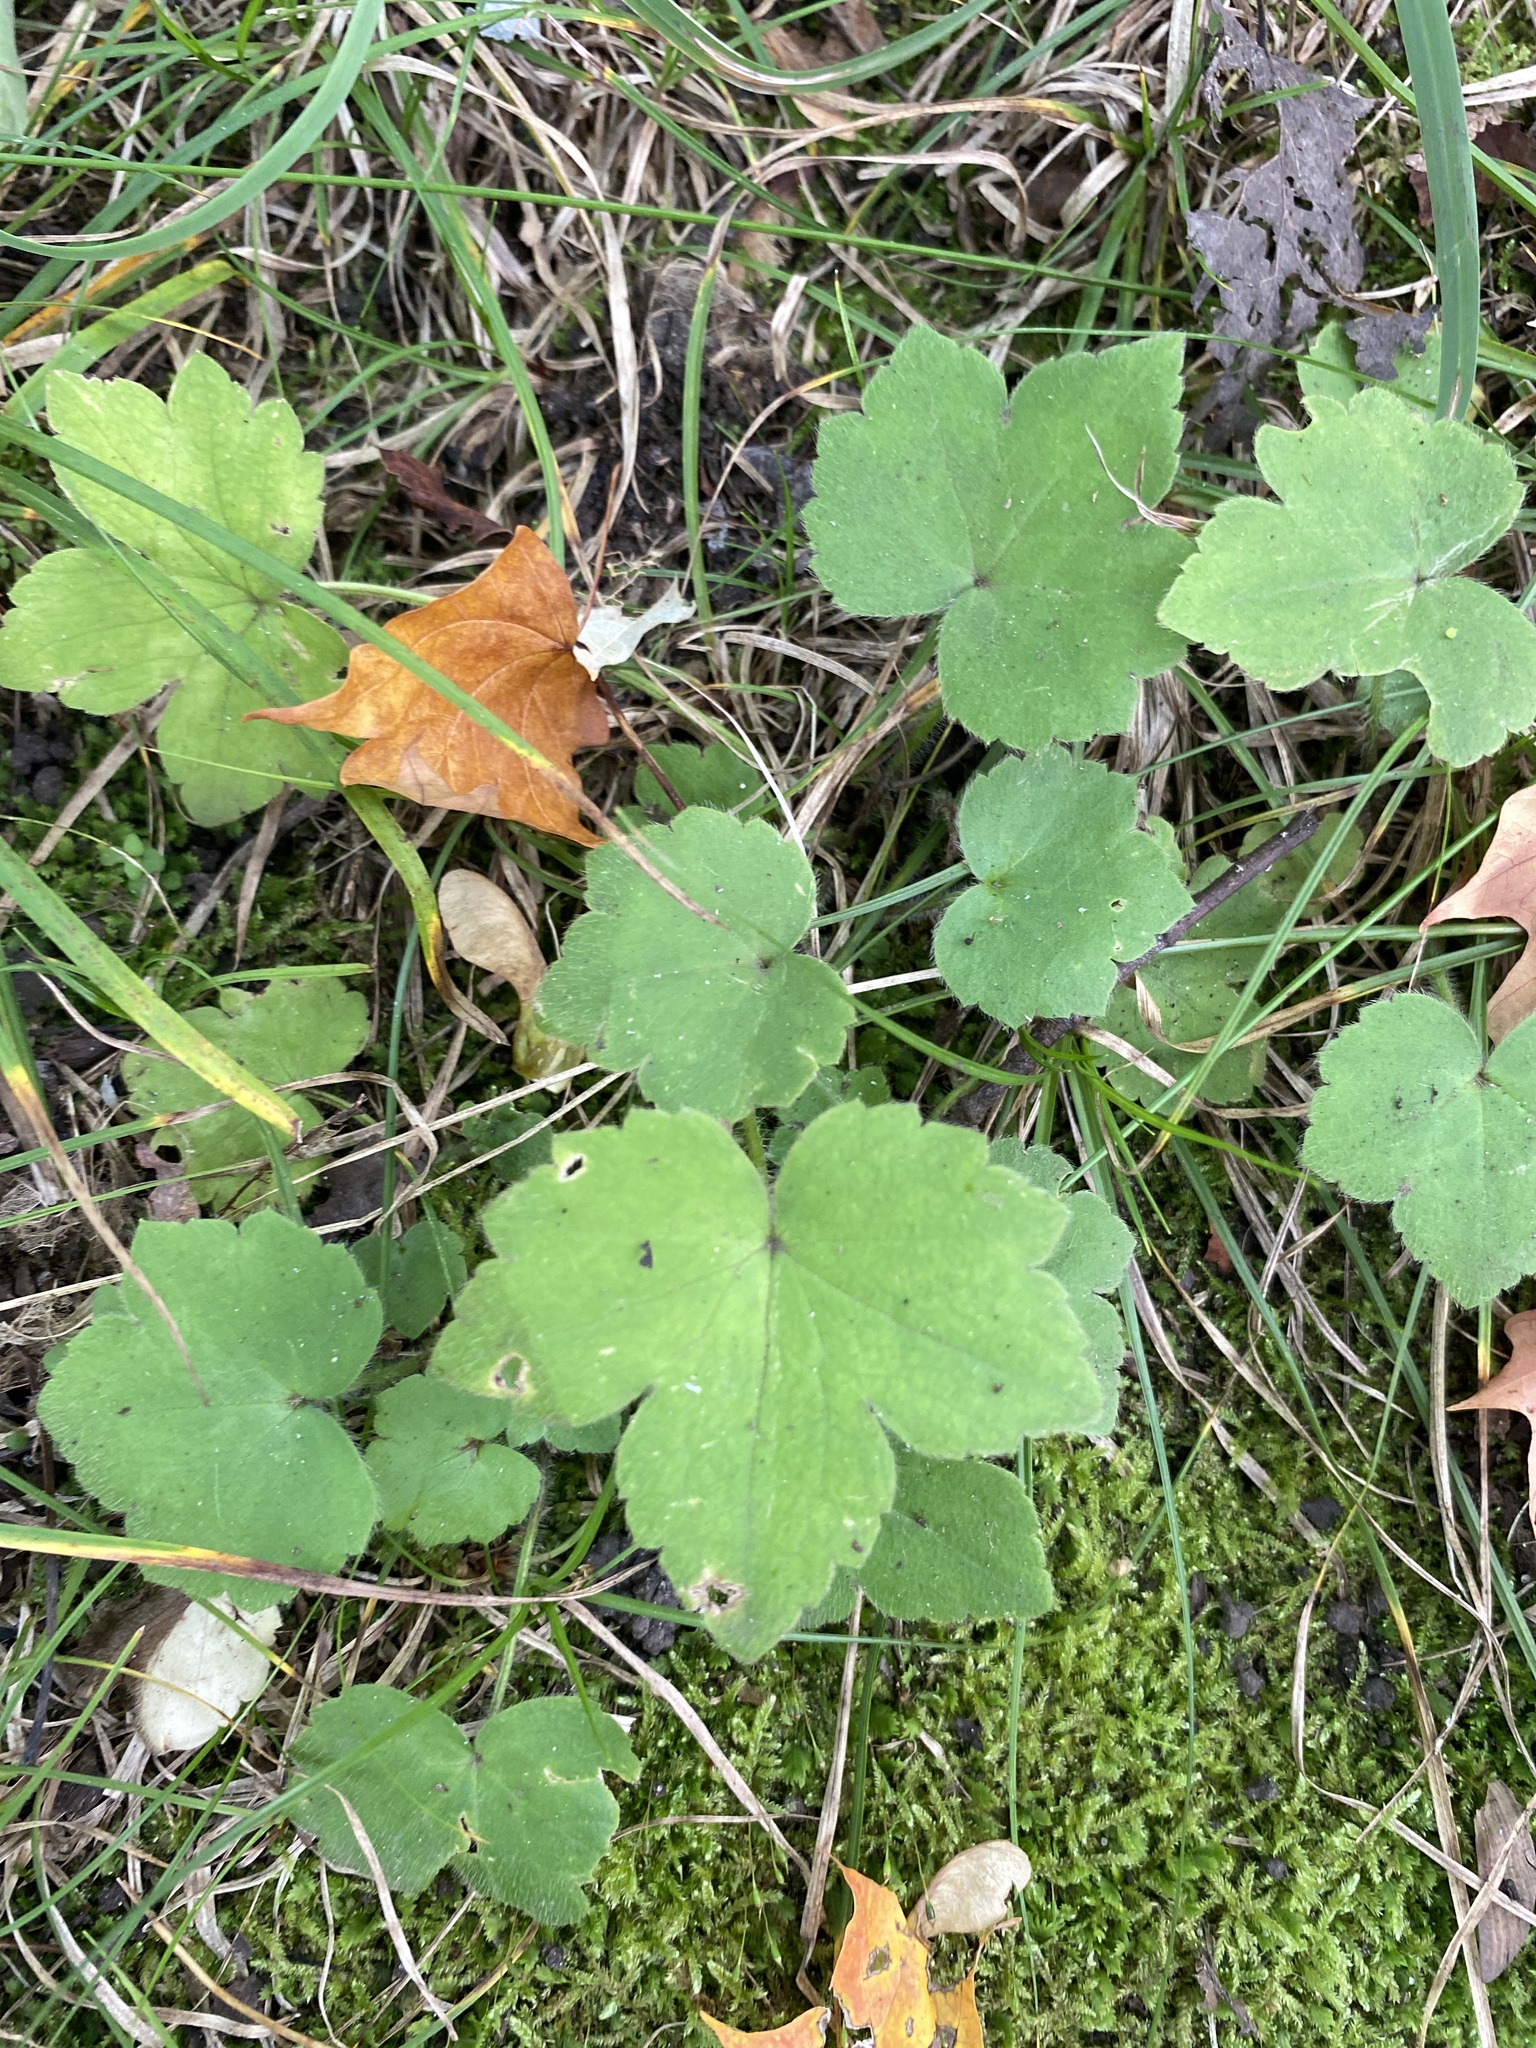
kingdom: Plantae
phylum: Tracheophyta
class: Magnoliopsida
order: Ranunculales
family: Ranunculaceae
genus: Ranunculus
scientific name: Ranunculus recurvatus
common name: Blisterwort
